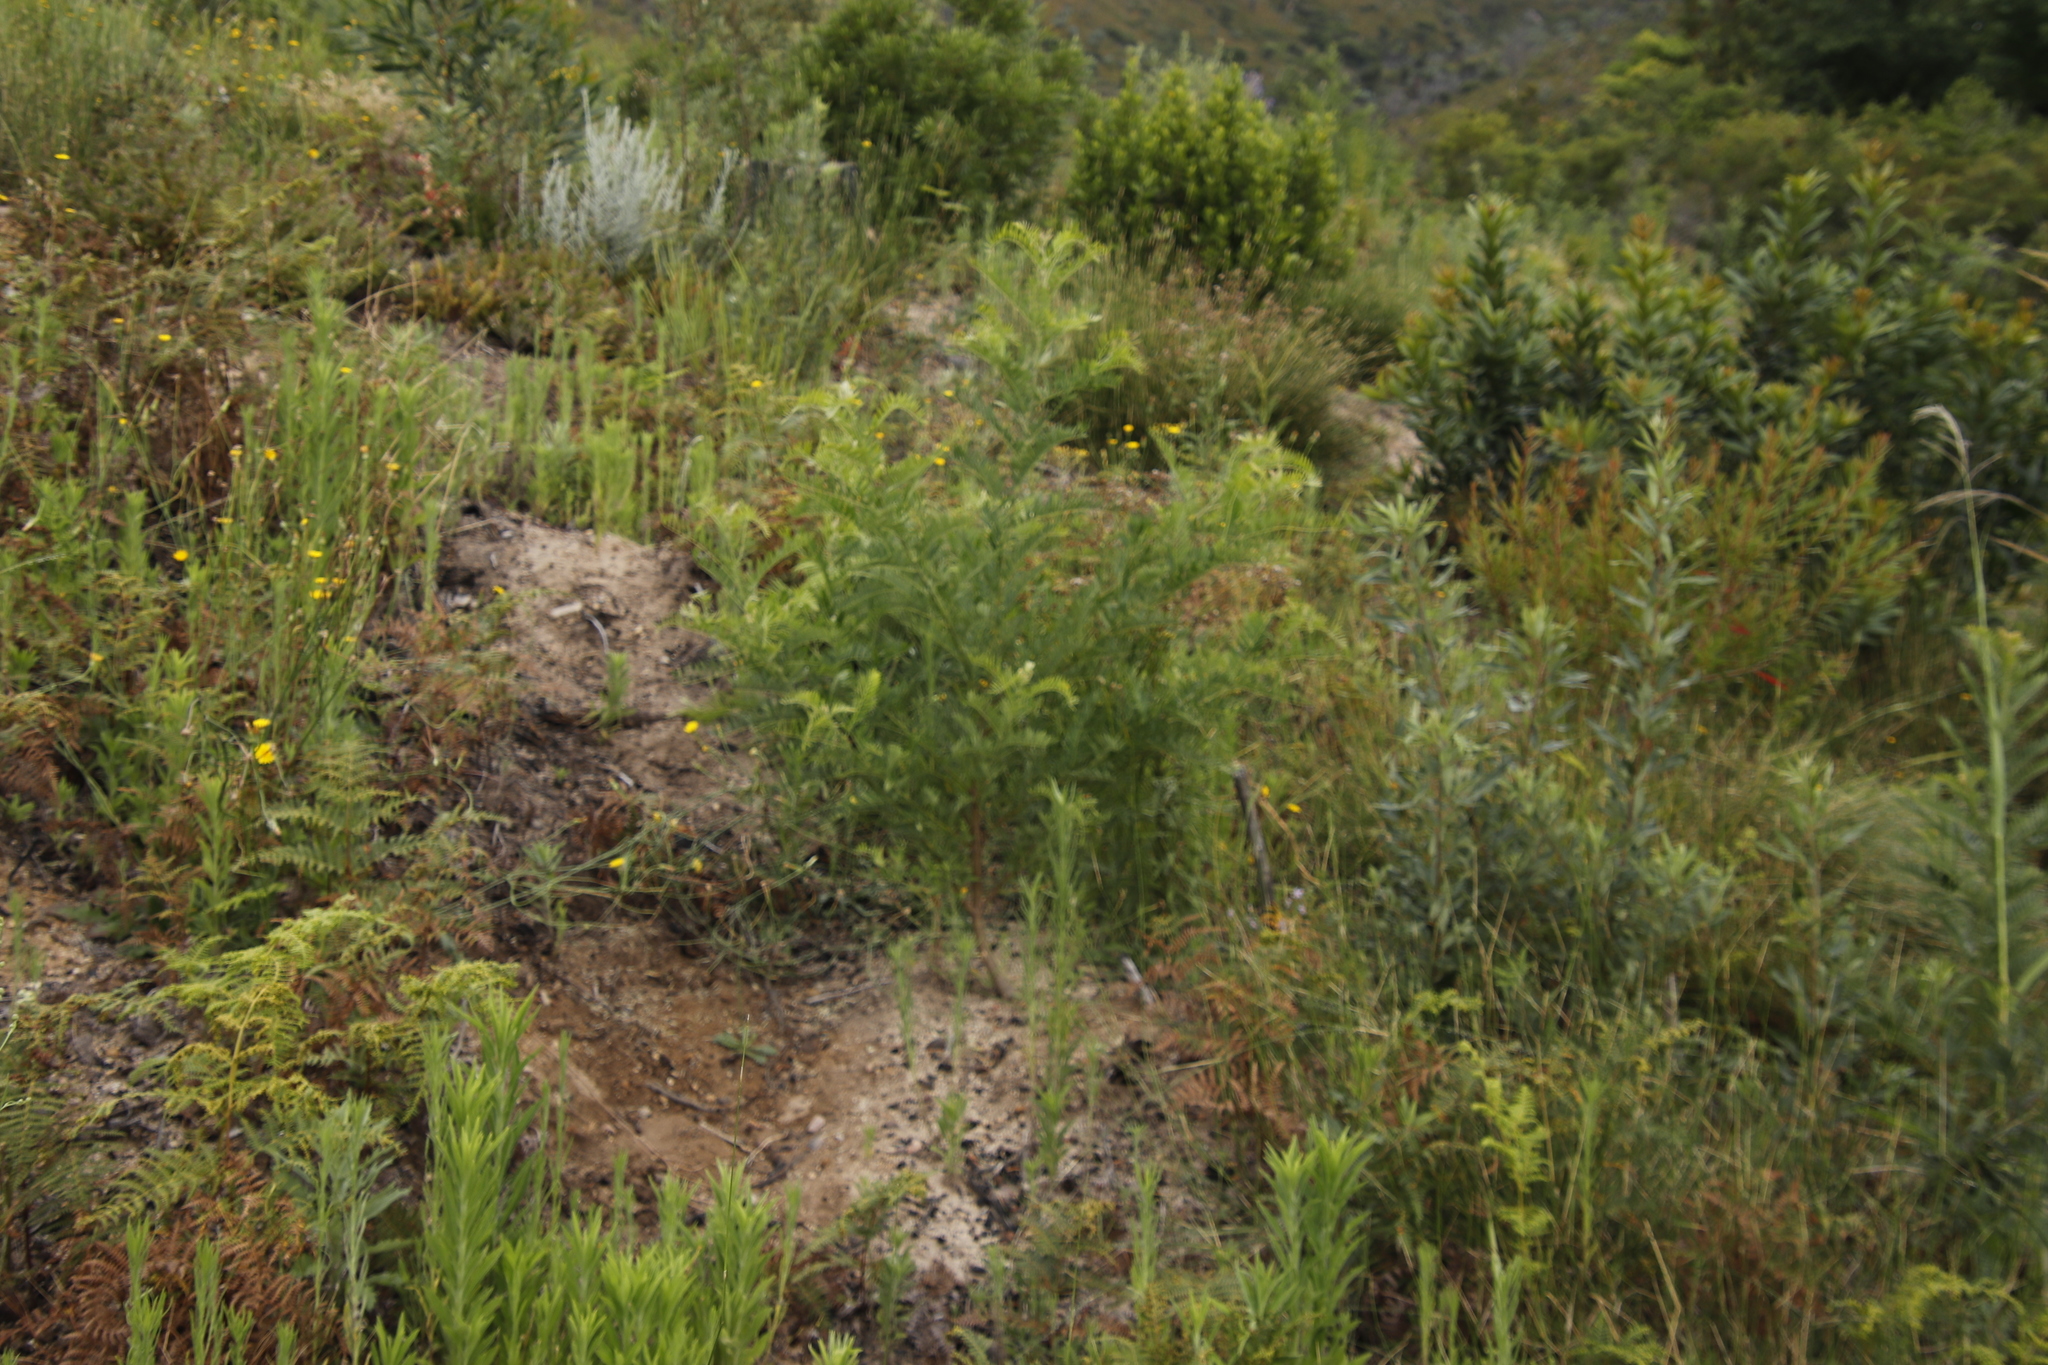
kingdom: Plantae
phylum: Tracheophyta
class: Magnoliopsida
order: Fabales
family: Fabaceae
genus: Virgilia
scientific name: Virgilia oroboides
